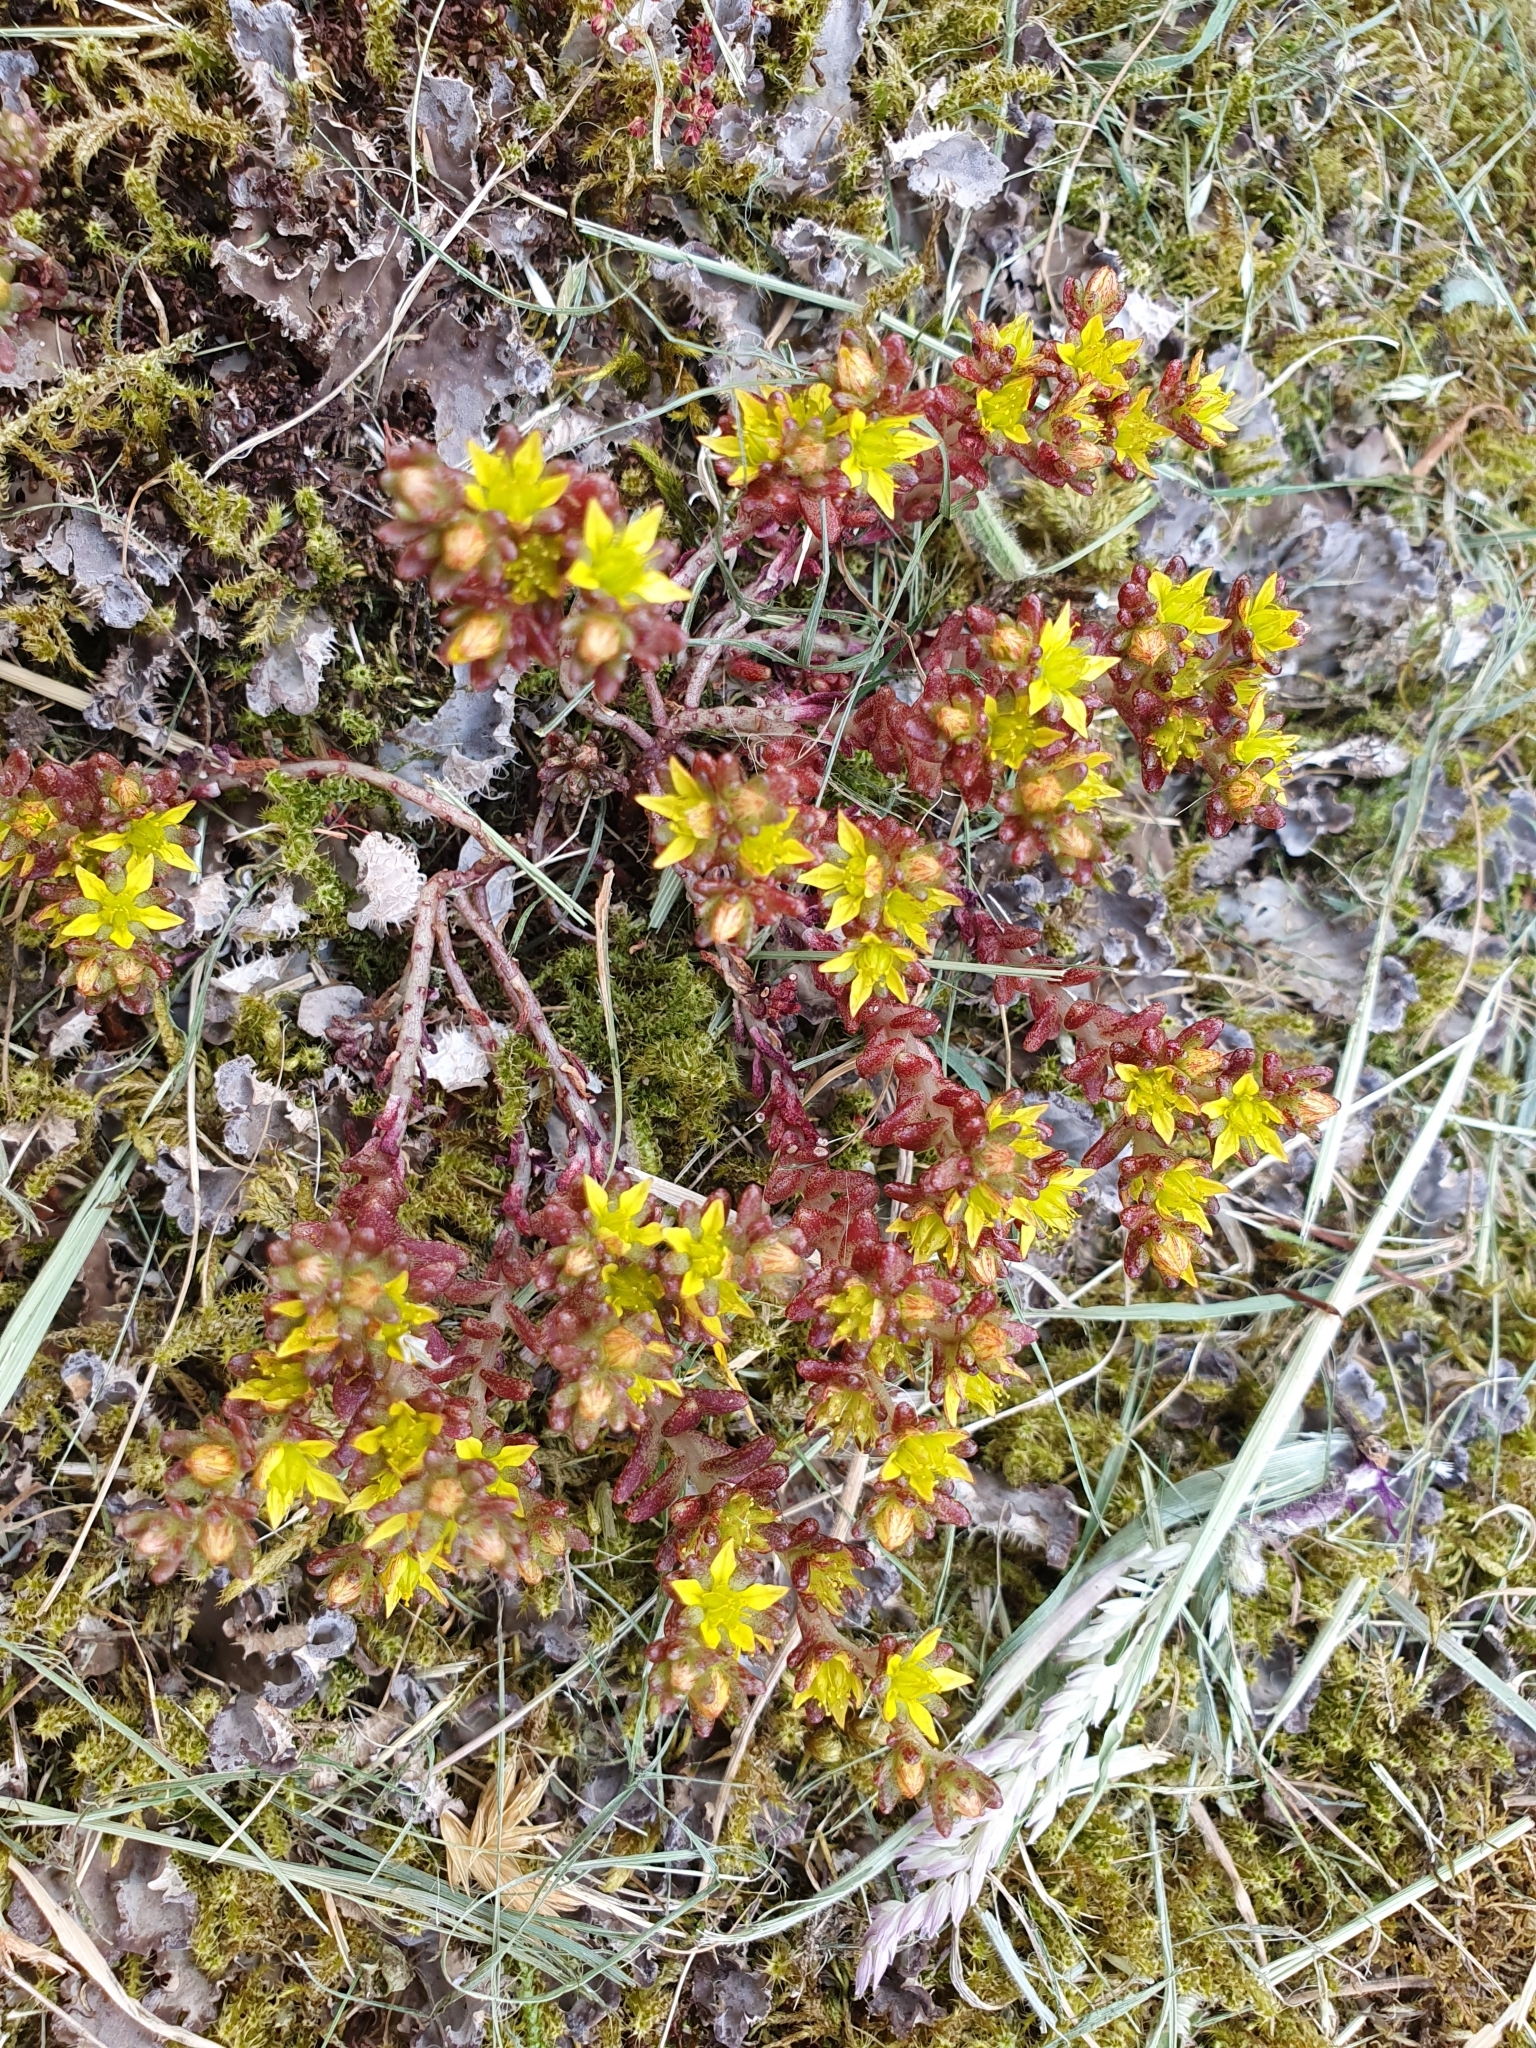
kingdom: Plantae
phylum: Tracheophyta
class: Magnoliopsida
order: Saxifragales
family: Crassulaceae
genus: Sedum
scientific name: Sedum annuum
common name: Annual stonecrop
